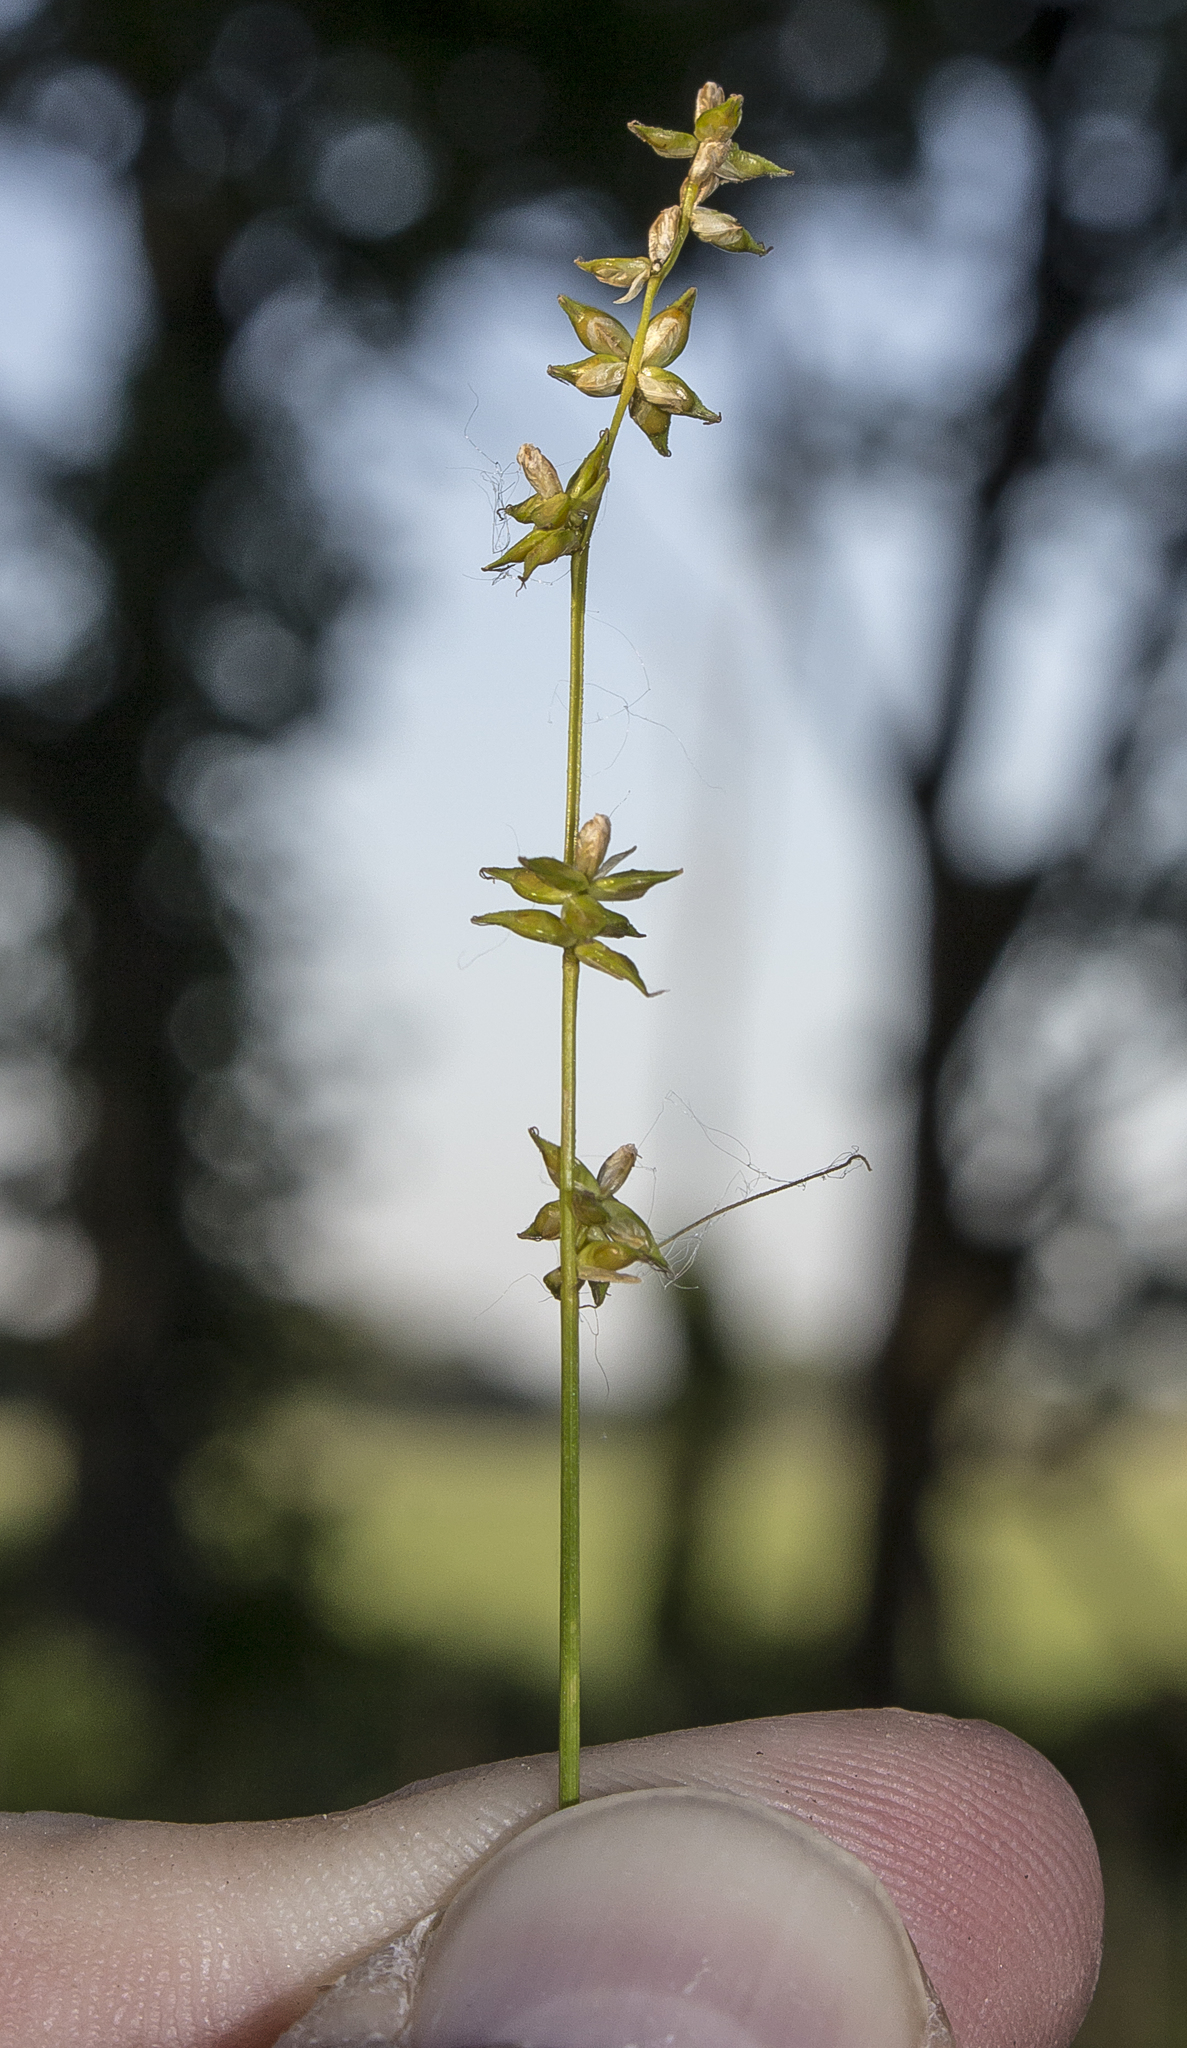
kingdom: Plantae
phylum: Tracheophyta
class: Liliopsida
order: Poales
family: Cyperaceae
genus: Carex
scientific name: Carex rosea
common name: Curly-styled wood sedge
